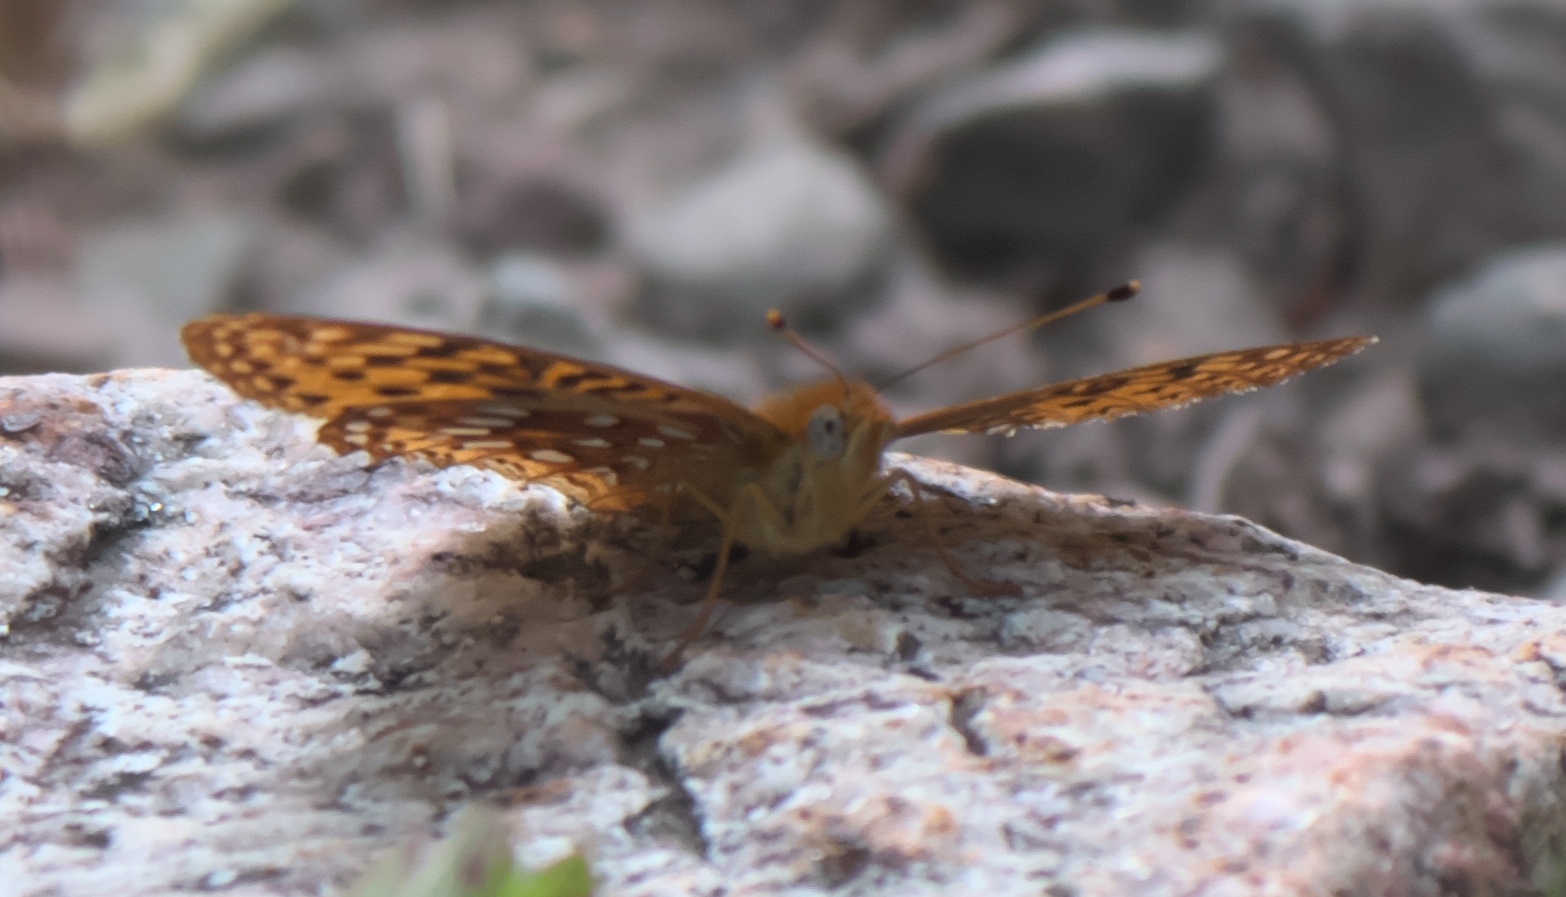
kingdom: Animalia
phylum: Arthropoda
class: Insecta
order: Lepidoptera
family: Nymphalidae
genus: Speyeria
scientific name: Speyeria atlantis
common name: Atlantis fritillary
